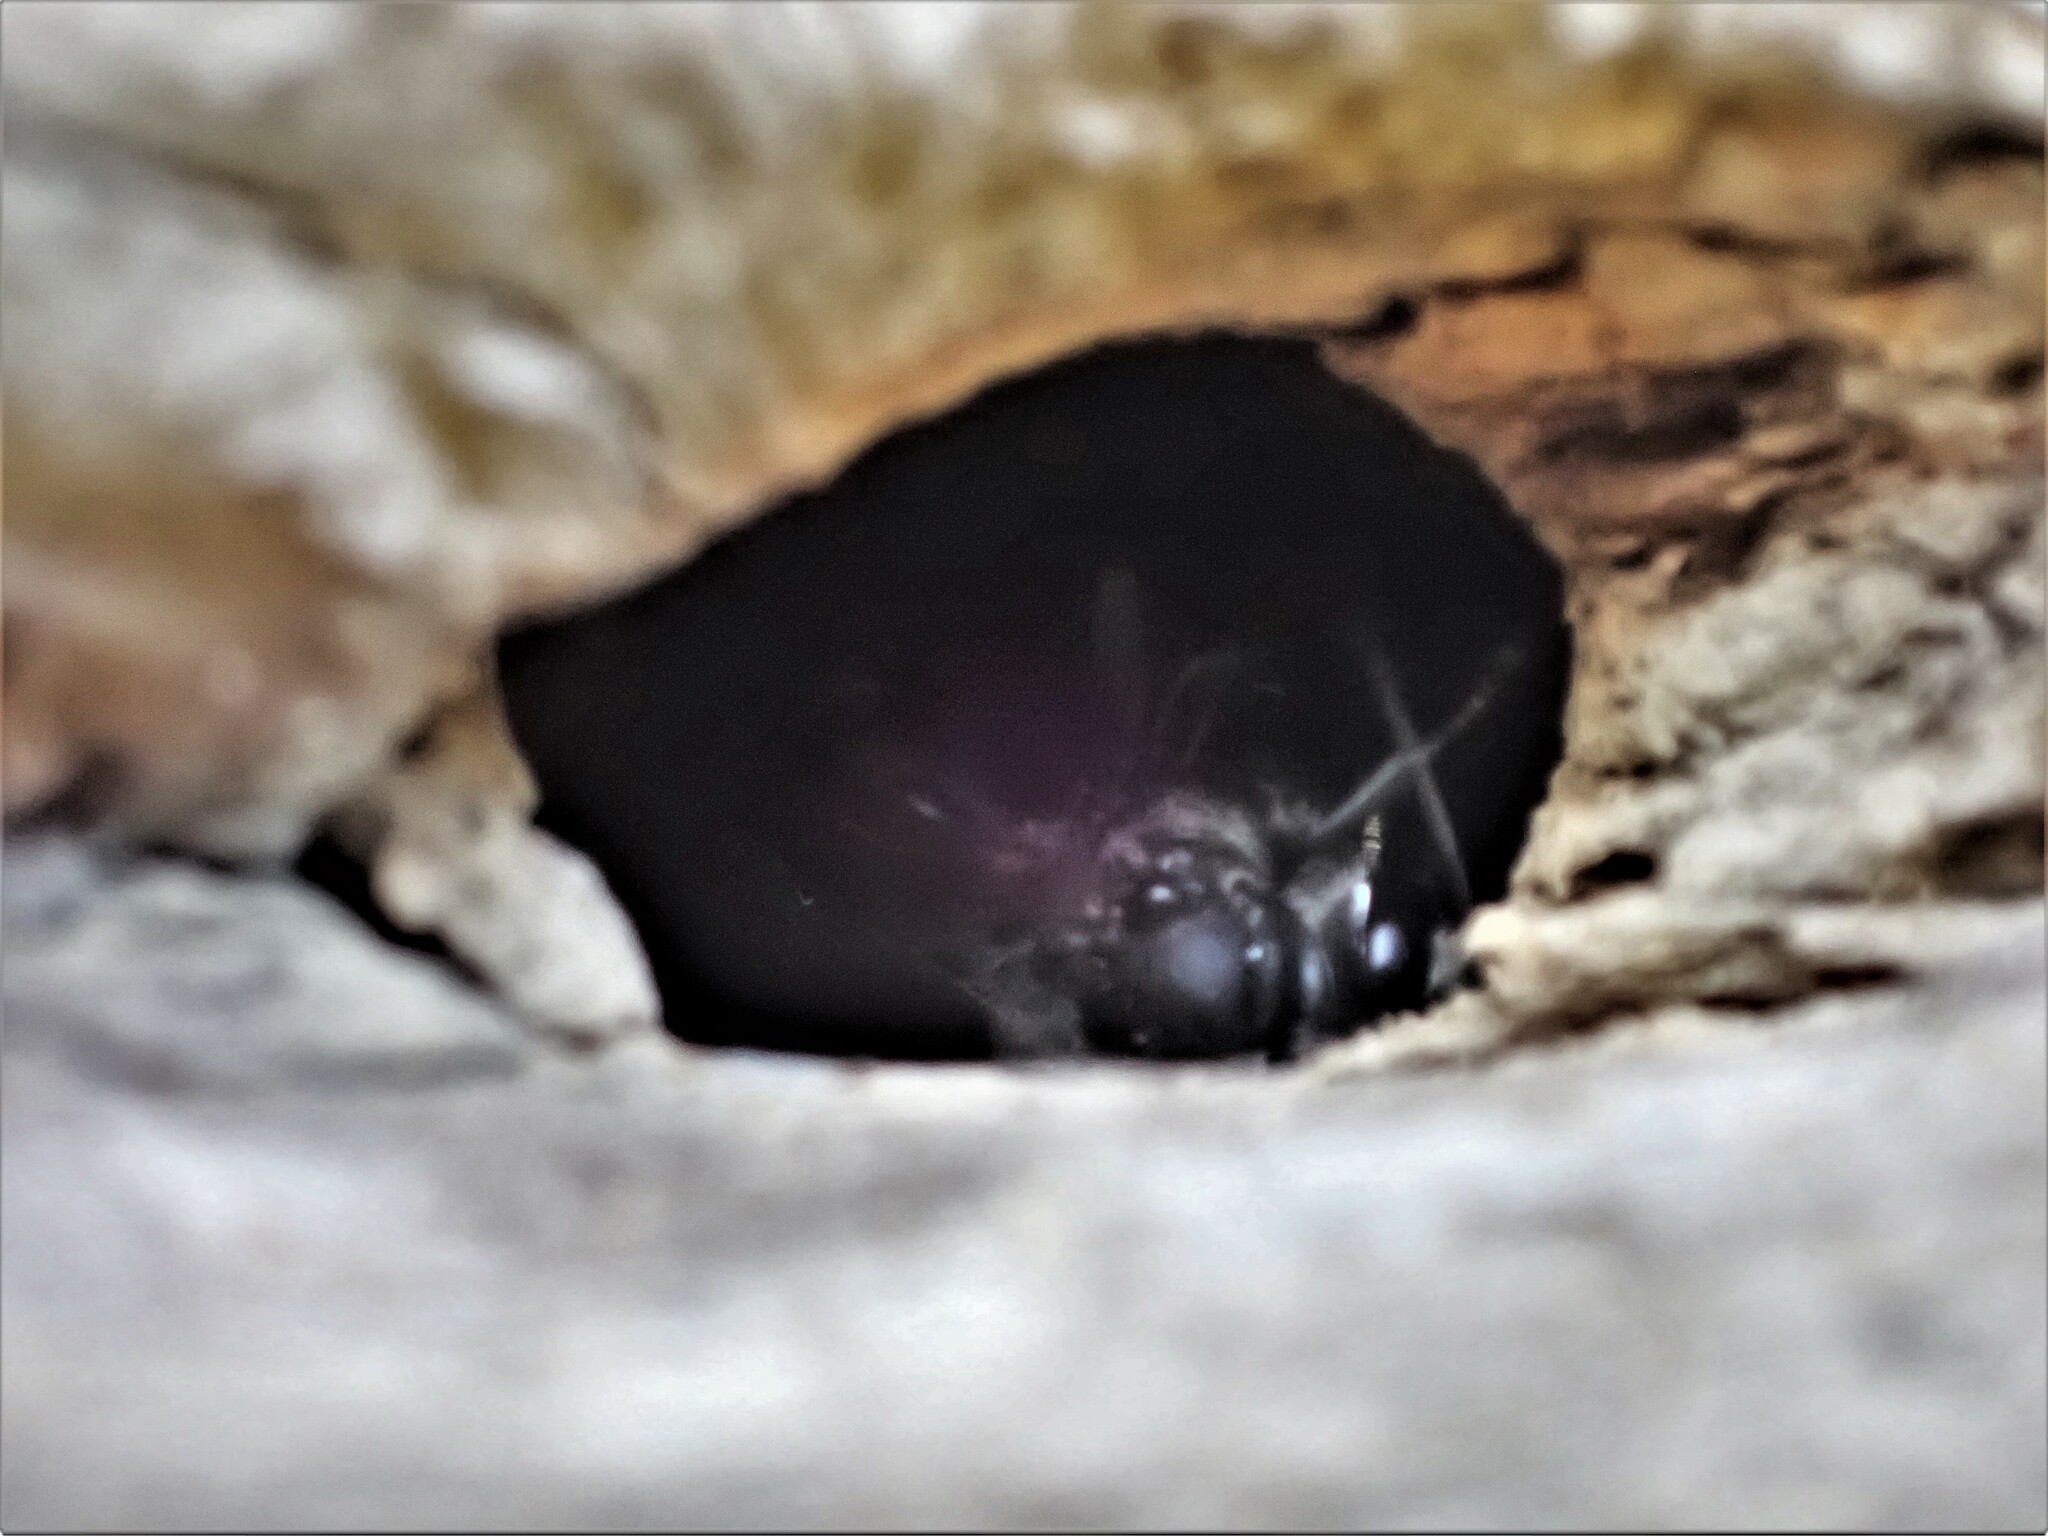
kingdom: Animalia
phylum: Arthropoda
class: Insecta
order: Hymenoptera
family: Crabronidae
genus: Pison
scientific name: Pison spinolae
